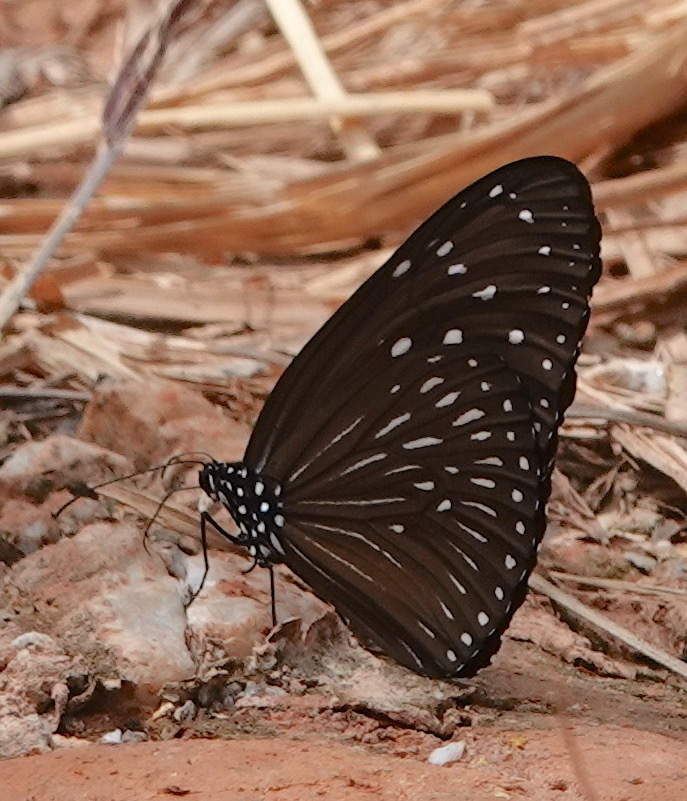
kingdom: Animalia
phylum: Arthropoda
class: Insecta
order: Lepidoptera
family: Nymphalidae
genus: Euploea
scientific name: Euploea mulciber
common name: Striped blue crow butterfly
